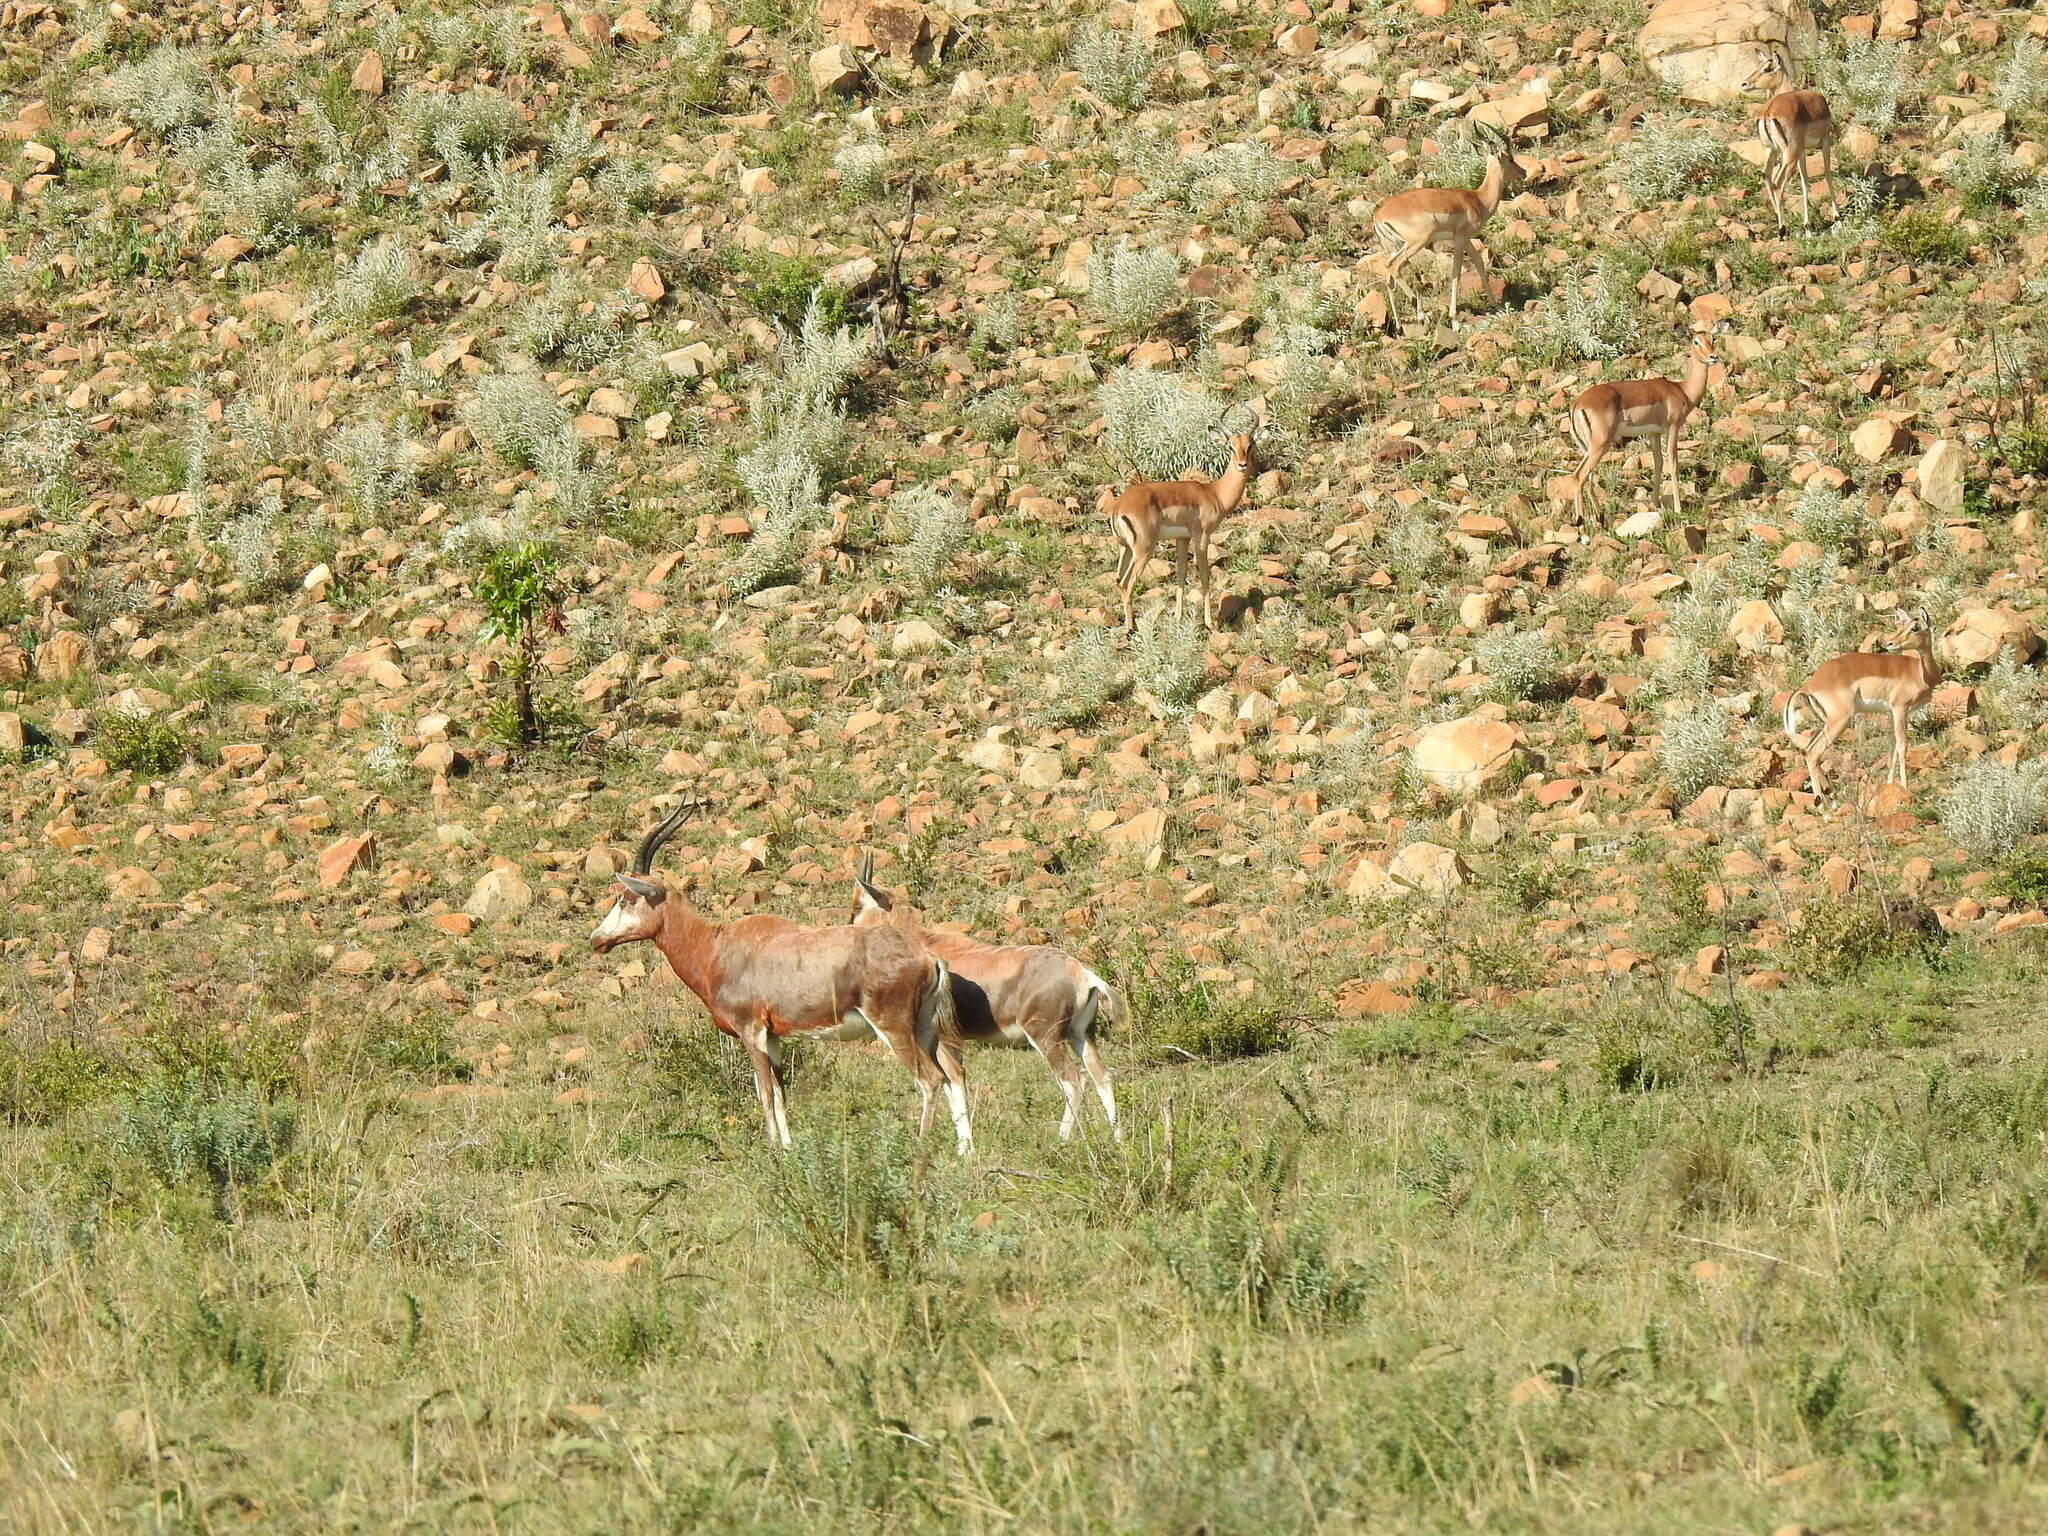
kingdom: Animalia
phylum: Chordata
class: Mammalia
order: Artiodactyla
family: Bovidae
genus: Damaliscus
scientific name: Damaliscus pygargus
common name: Bontebok
